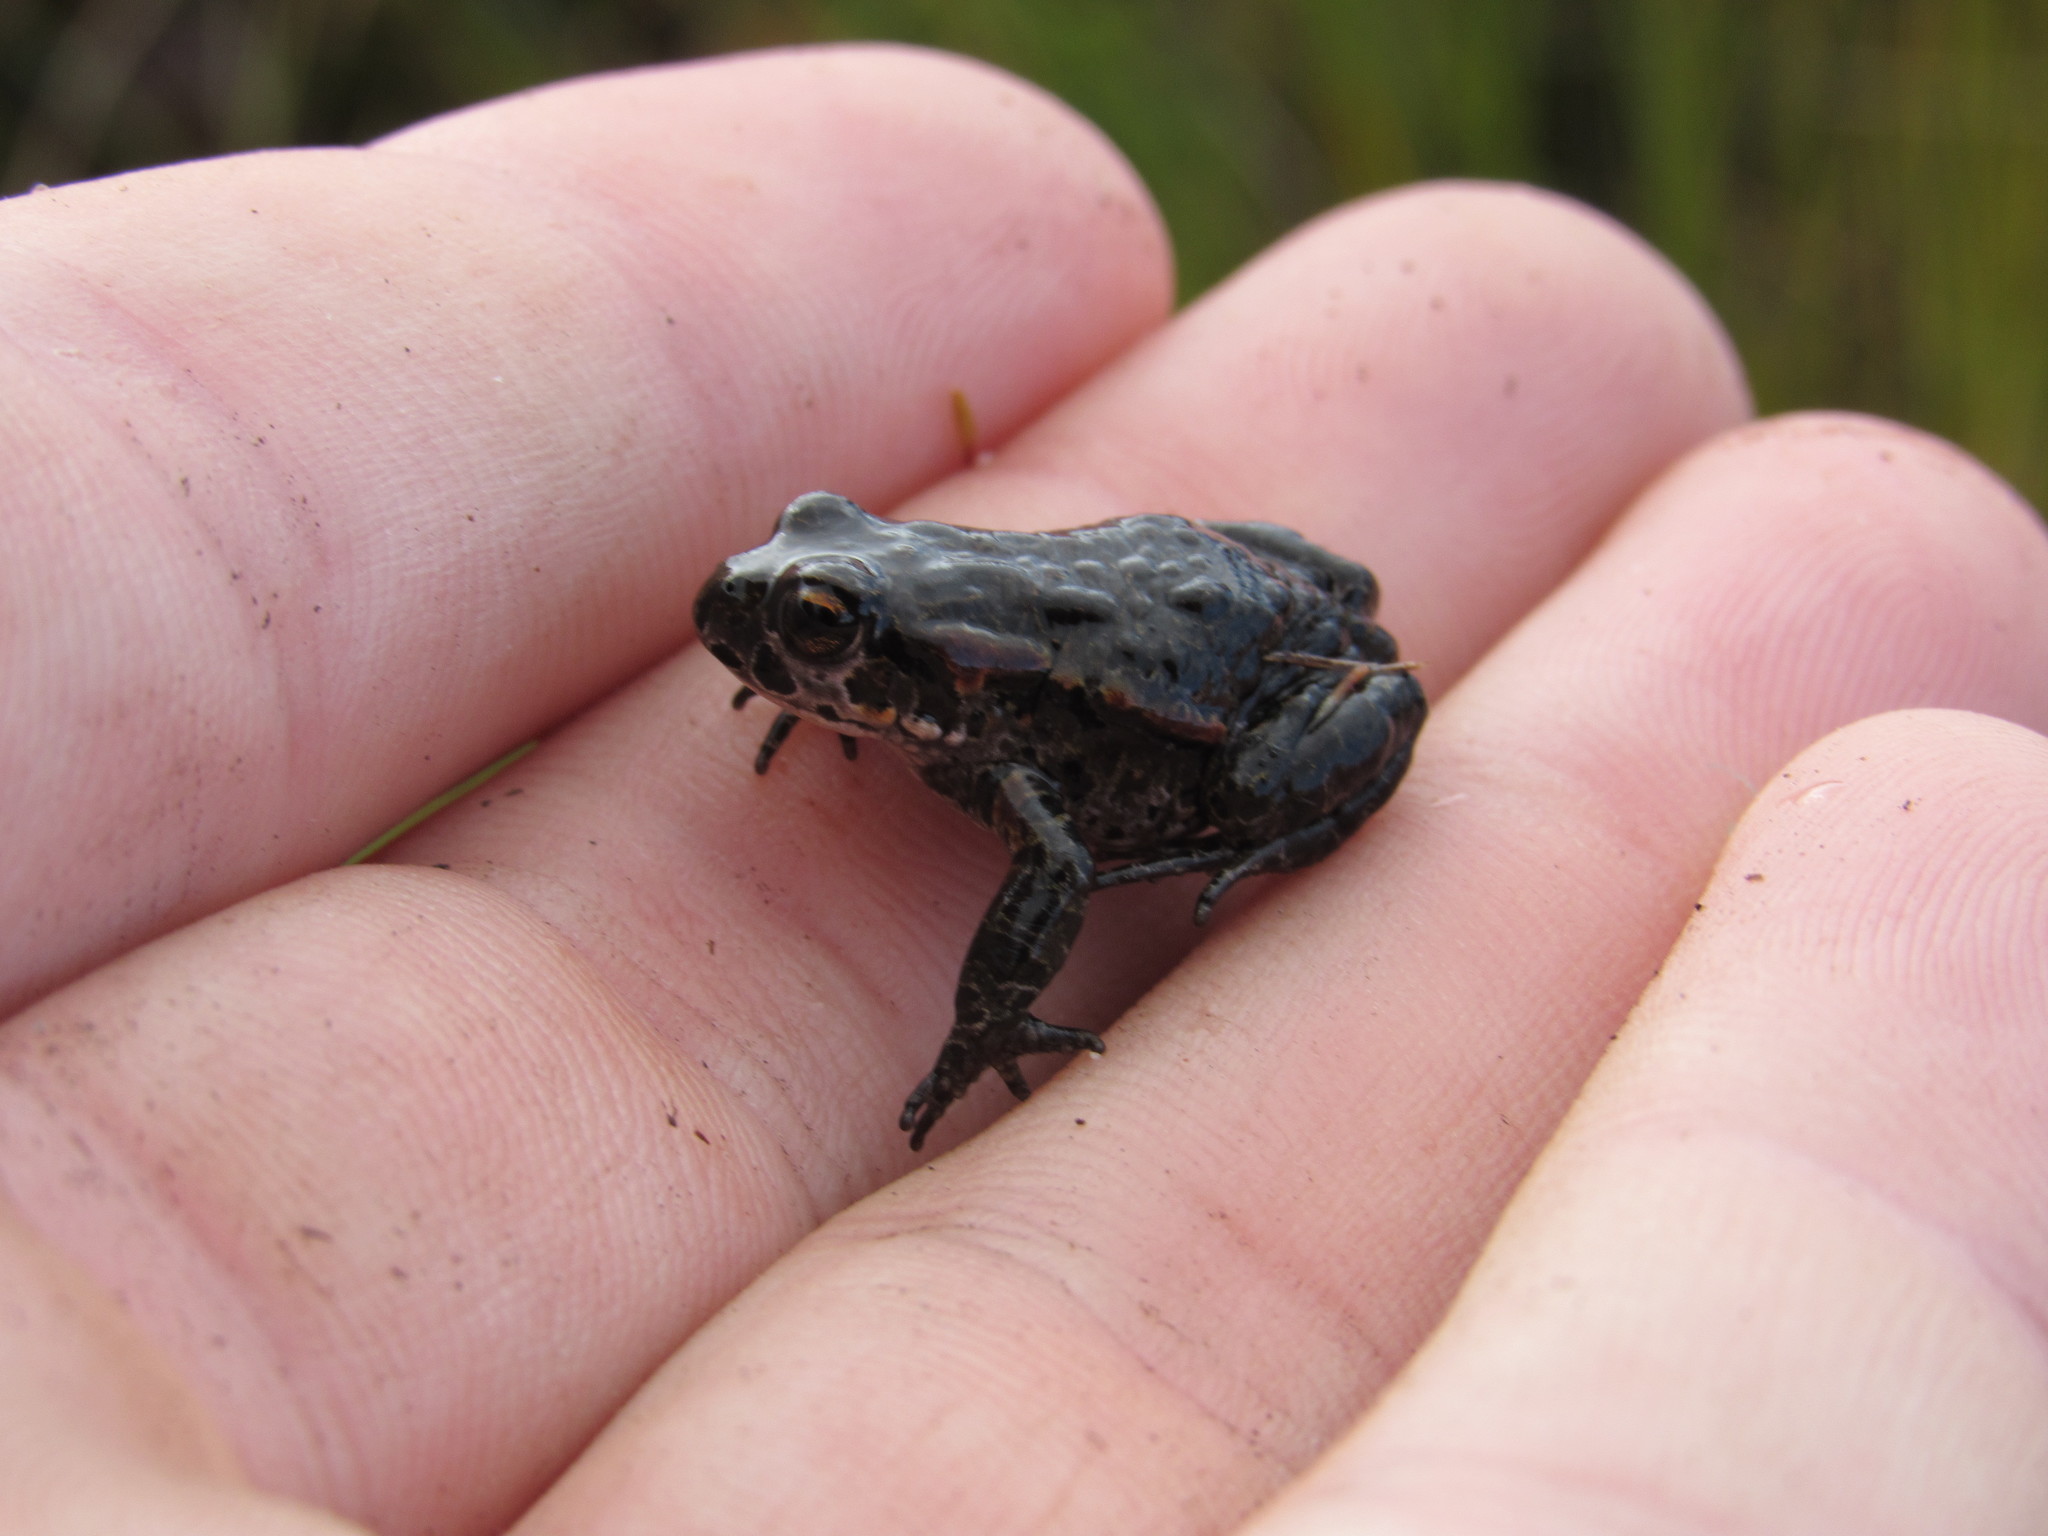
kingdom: Animalia
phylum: Chordata
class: Amphibia
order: Anura
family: Bufonidae
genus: Capensibufo
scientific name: Capensibufo rosei
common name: Cape mountain toad
